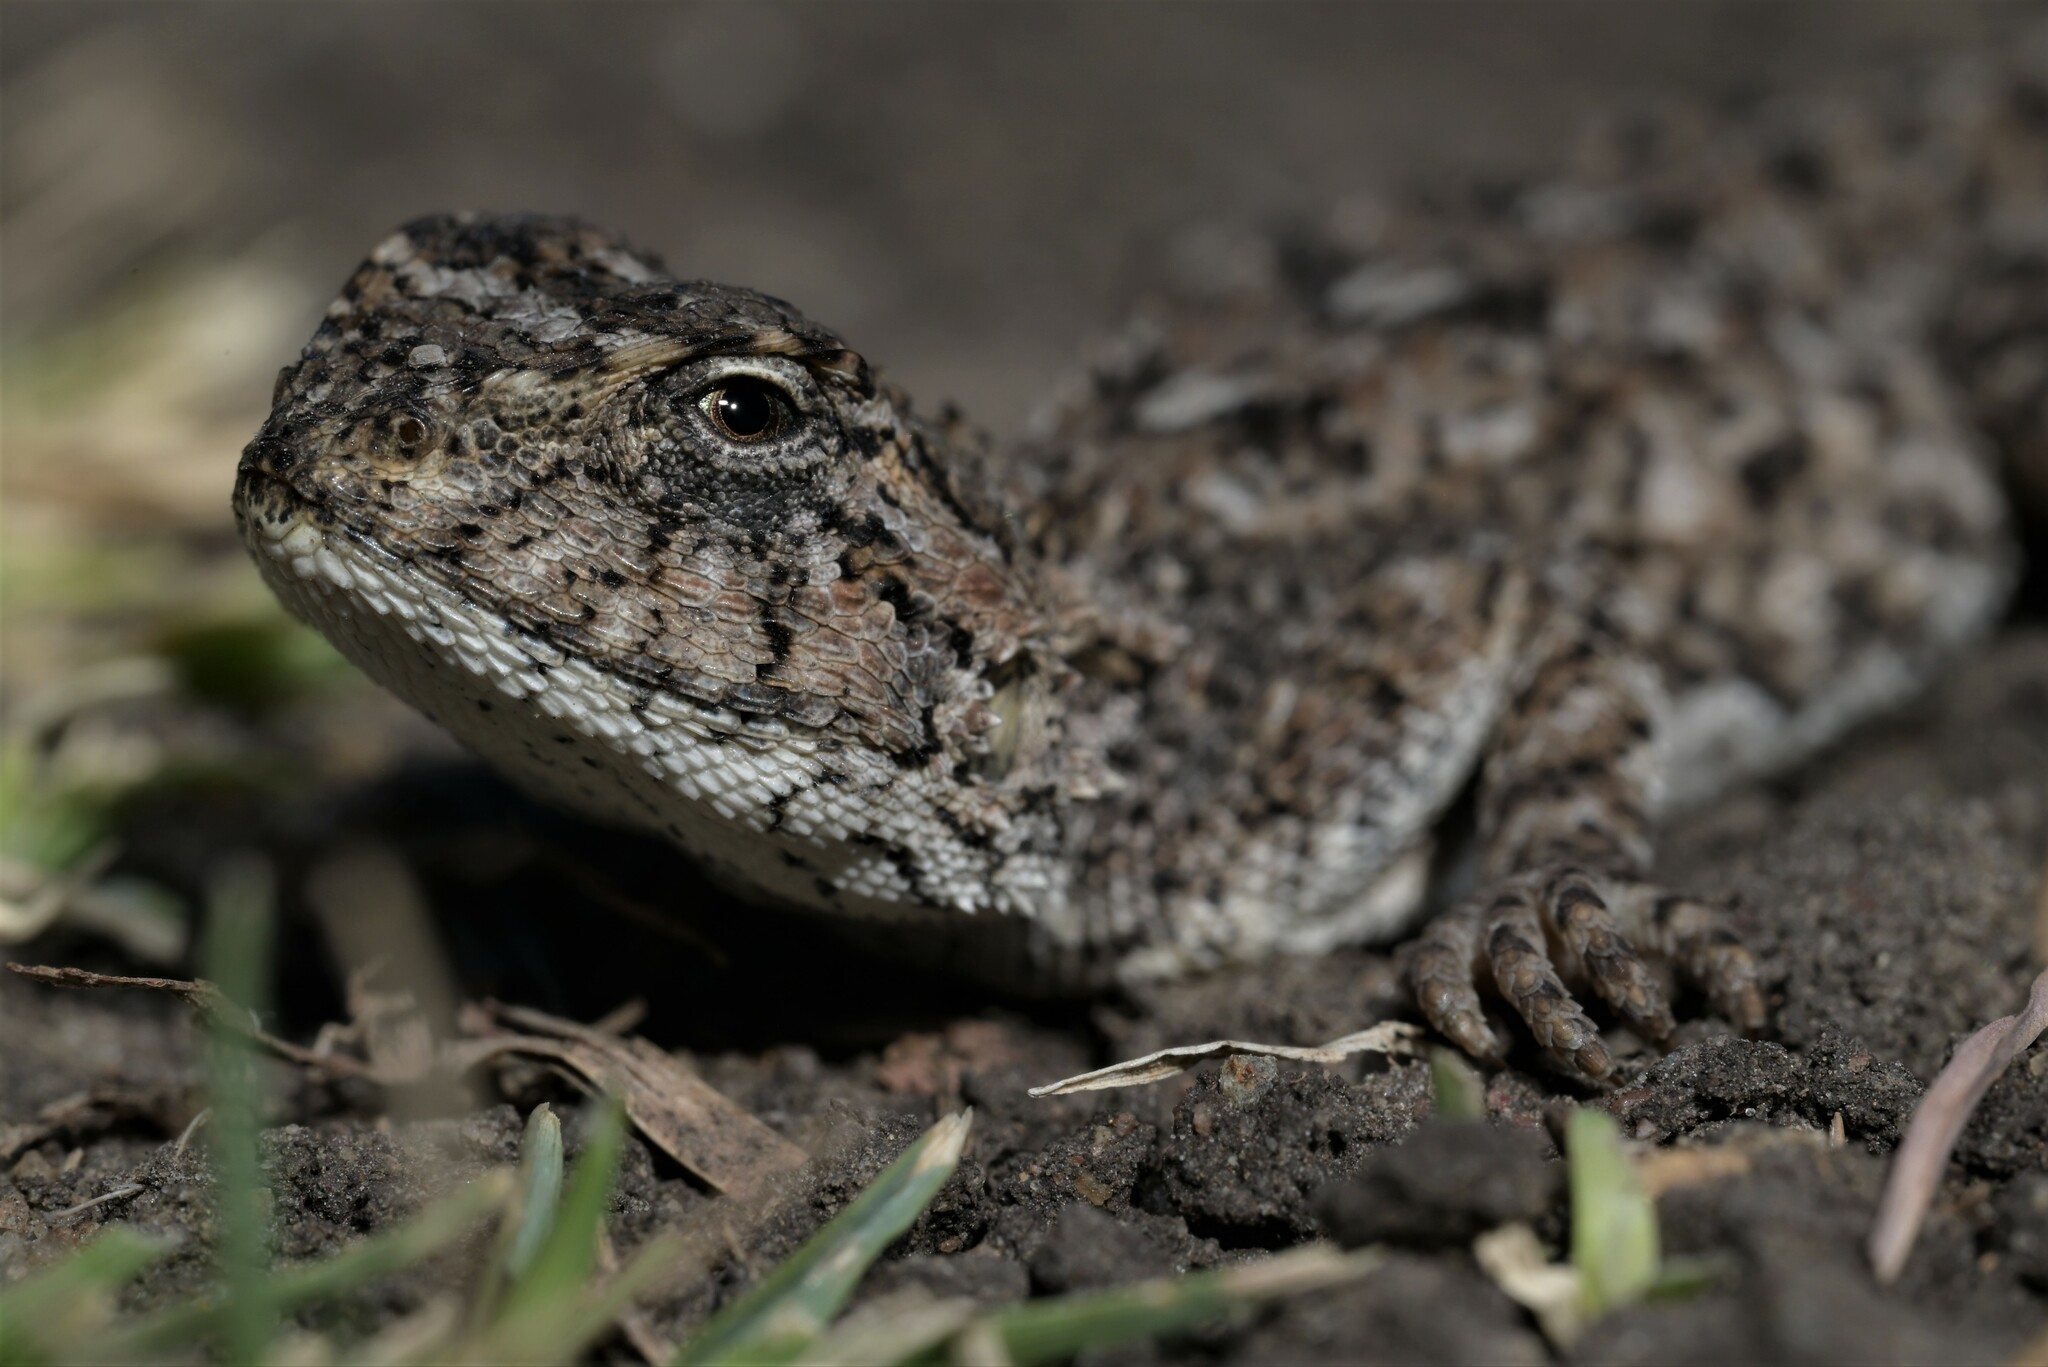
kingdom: Animalia
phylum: Chordata
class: Squamata
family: Agamidae
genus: Agama
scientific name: Agama aculeata
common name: Common ground agama
